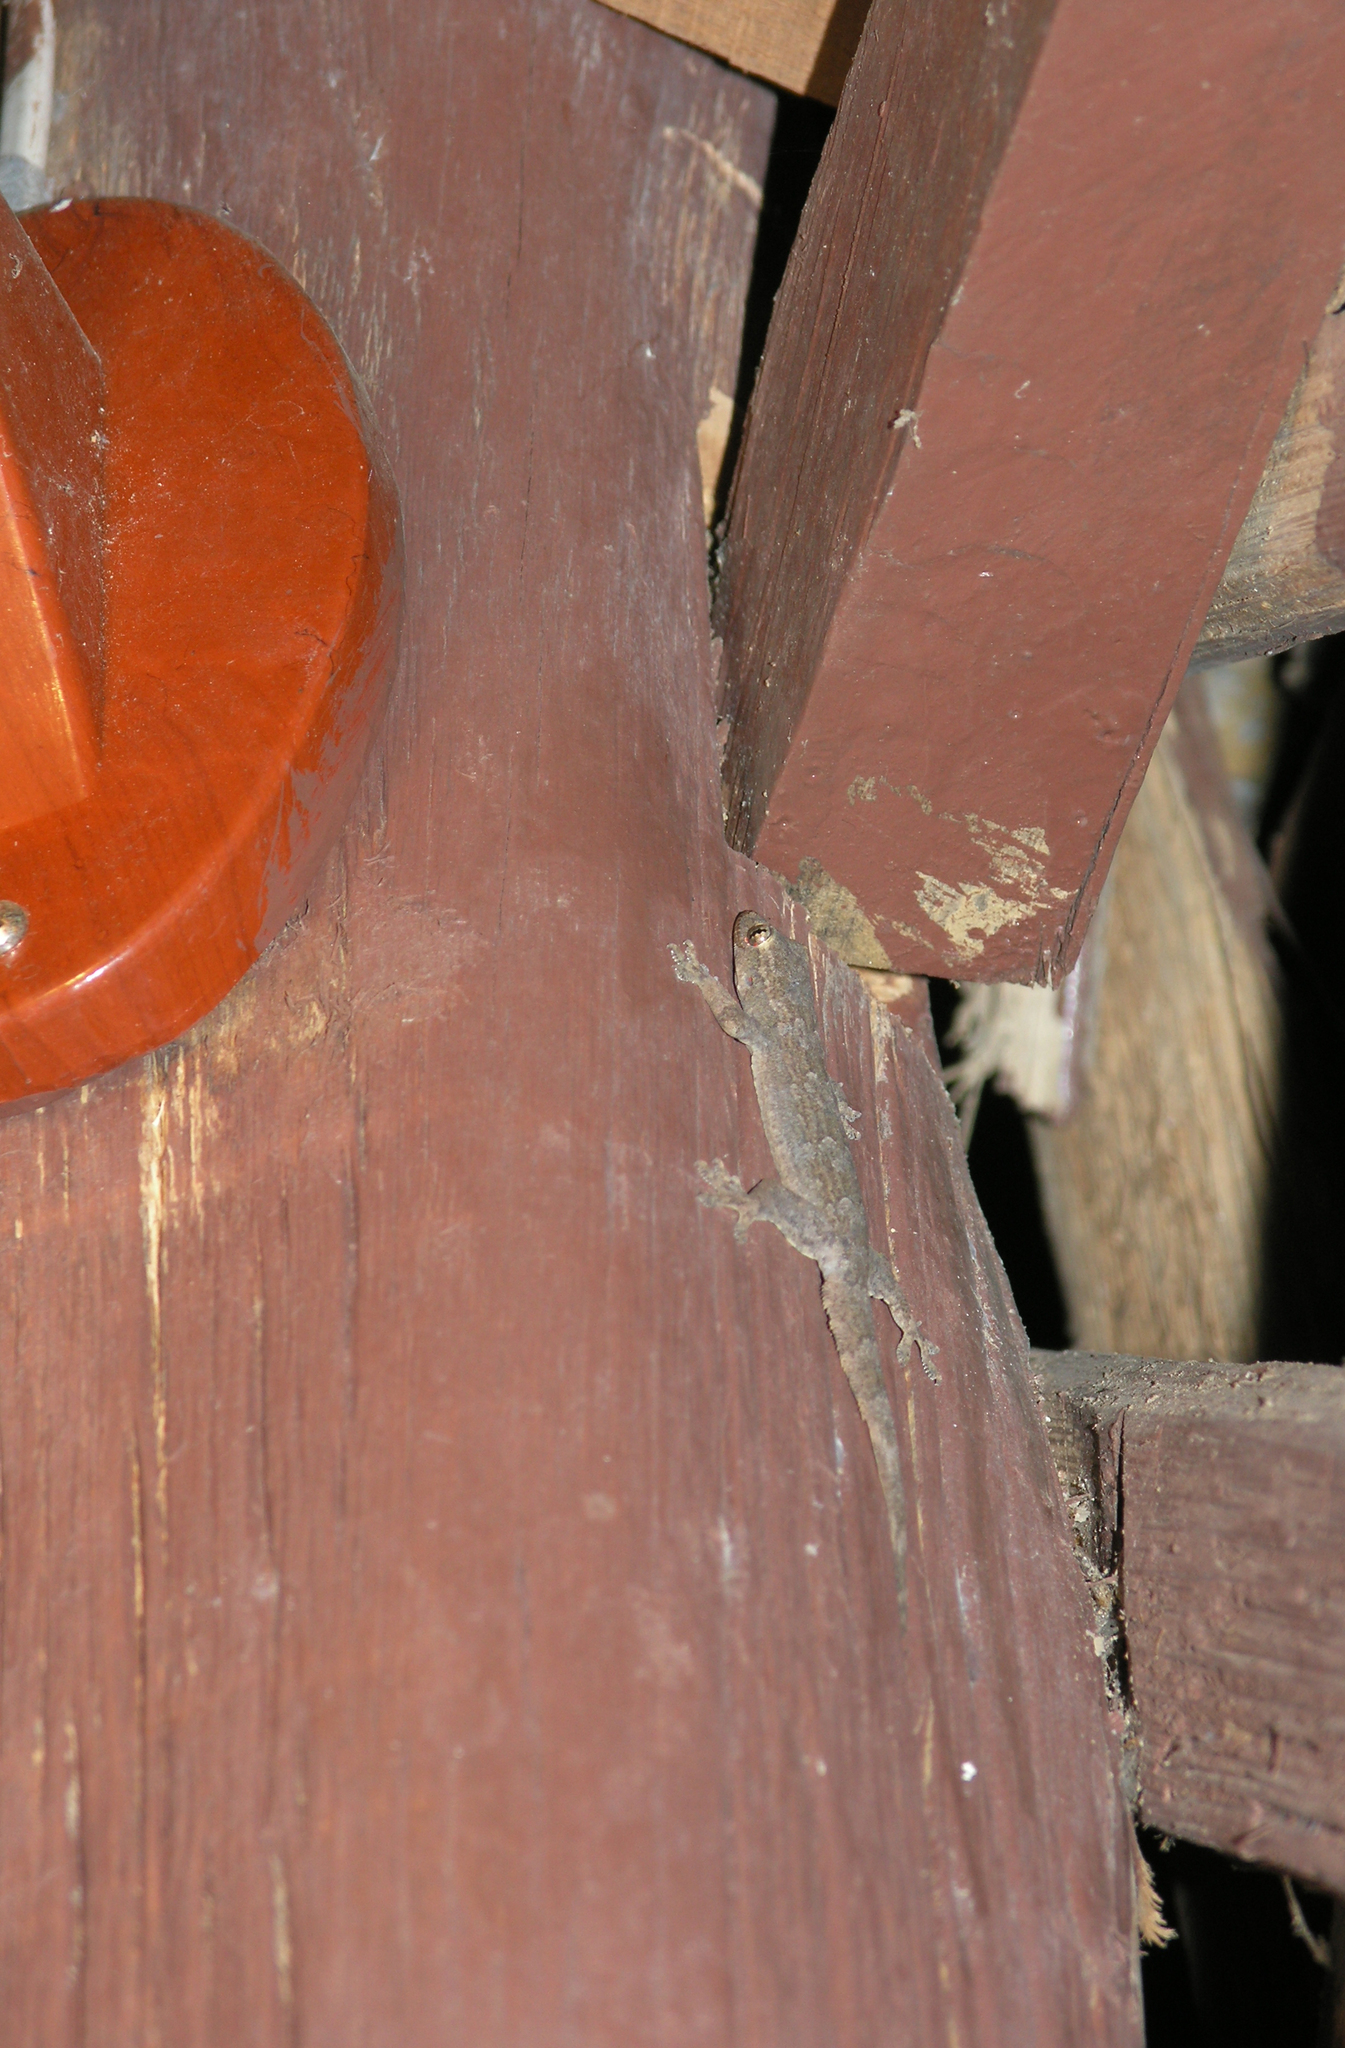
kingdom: Animalia
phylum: Chordata
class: Squamata
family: Gekkonidae
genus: Hemidactylus
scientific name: Hemidactylus platyurus
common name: Flat-tailed house gecko
